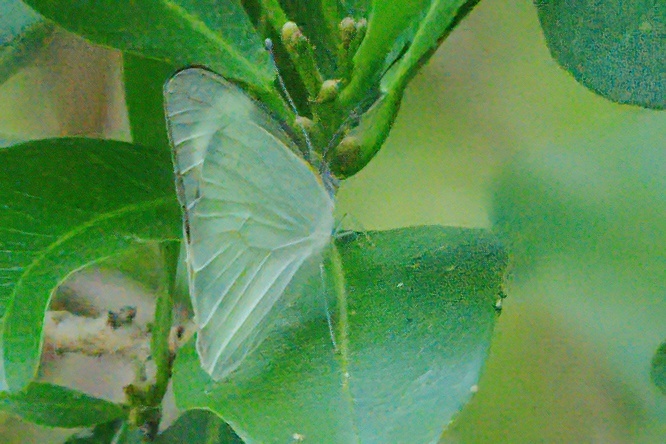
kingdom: Animalia
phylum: Arthropoda
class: Insecta
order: Lepidoptera
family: Pieridae
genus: Glutophrissa
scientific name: Glutophrissa drusilla
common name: Florida white
